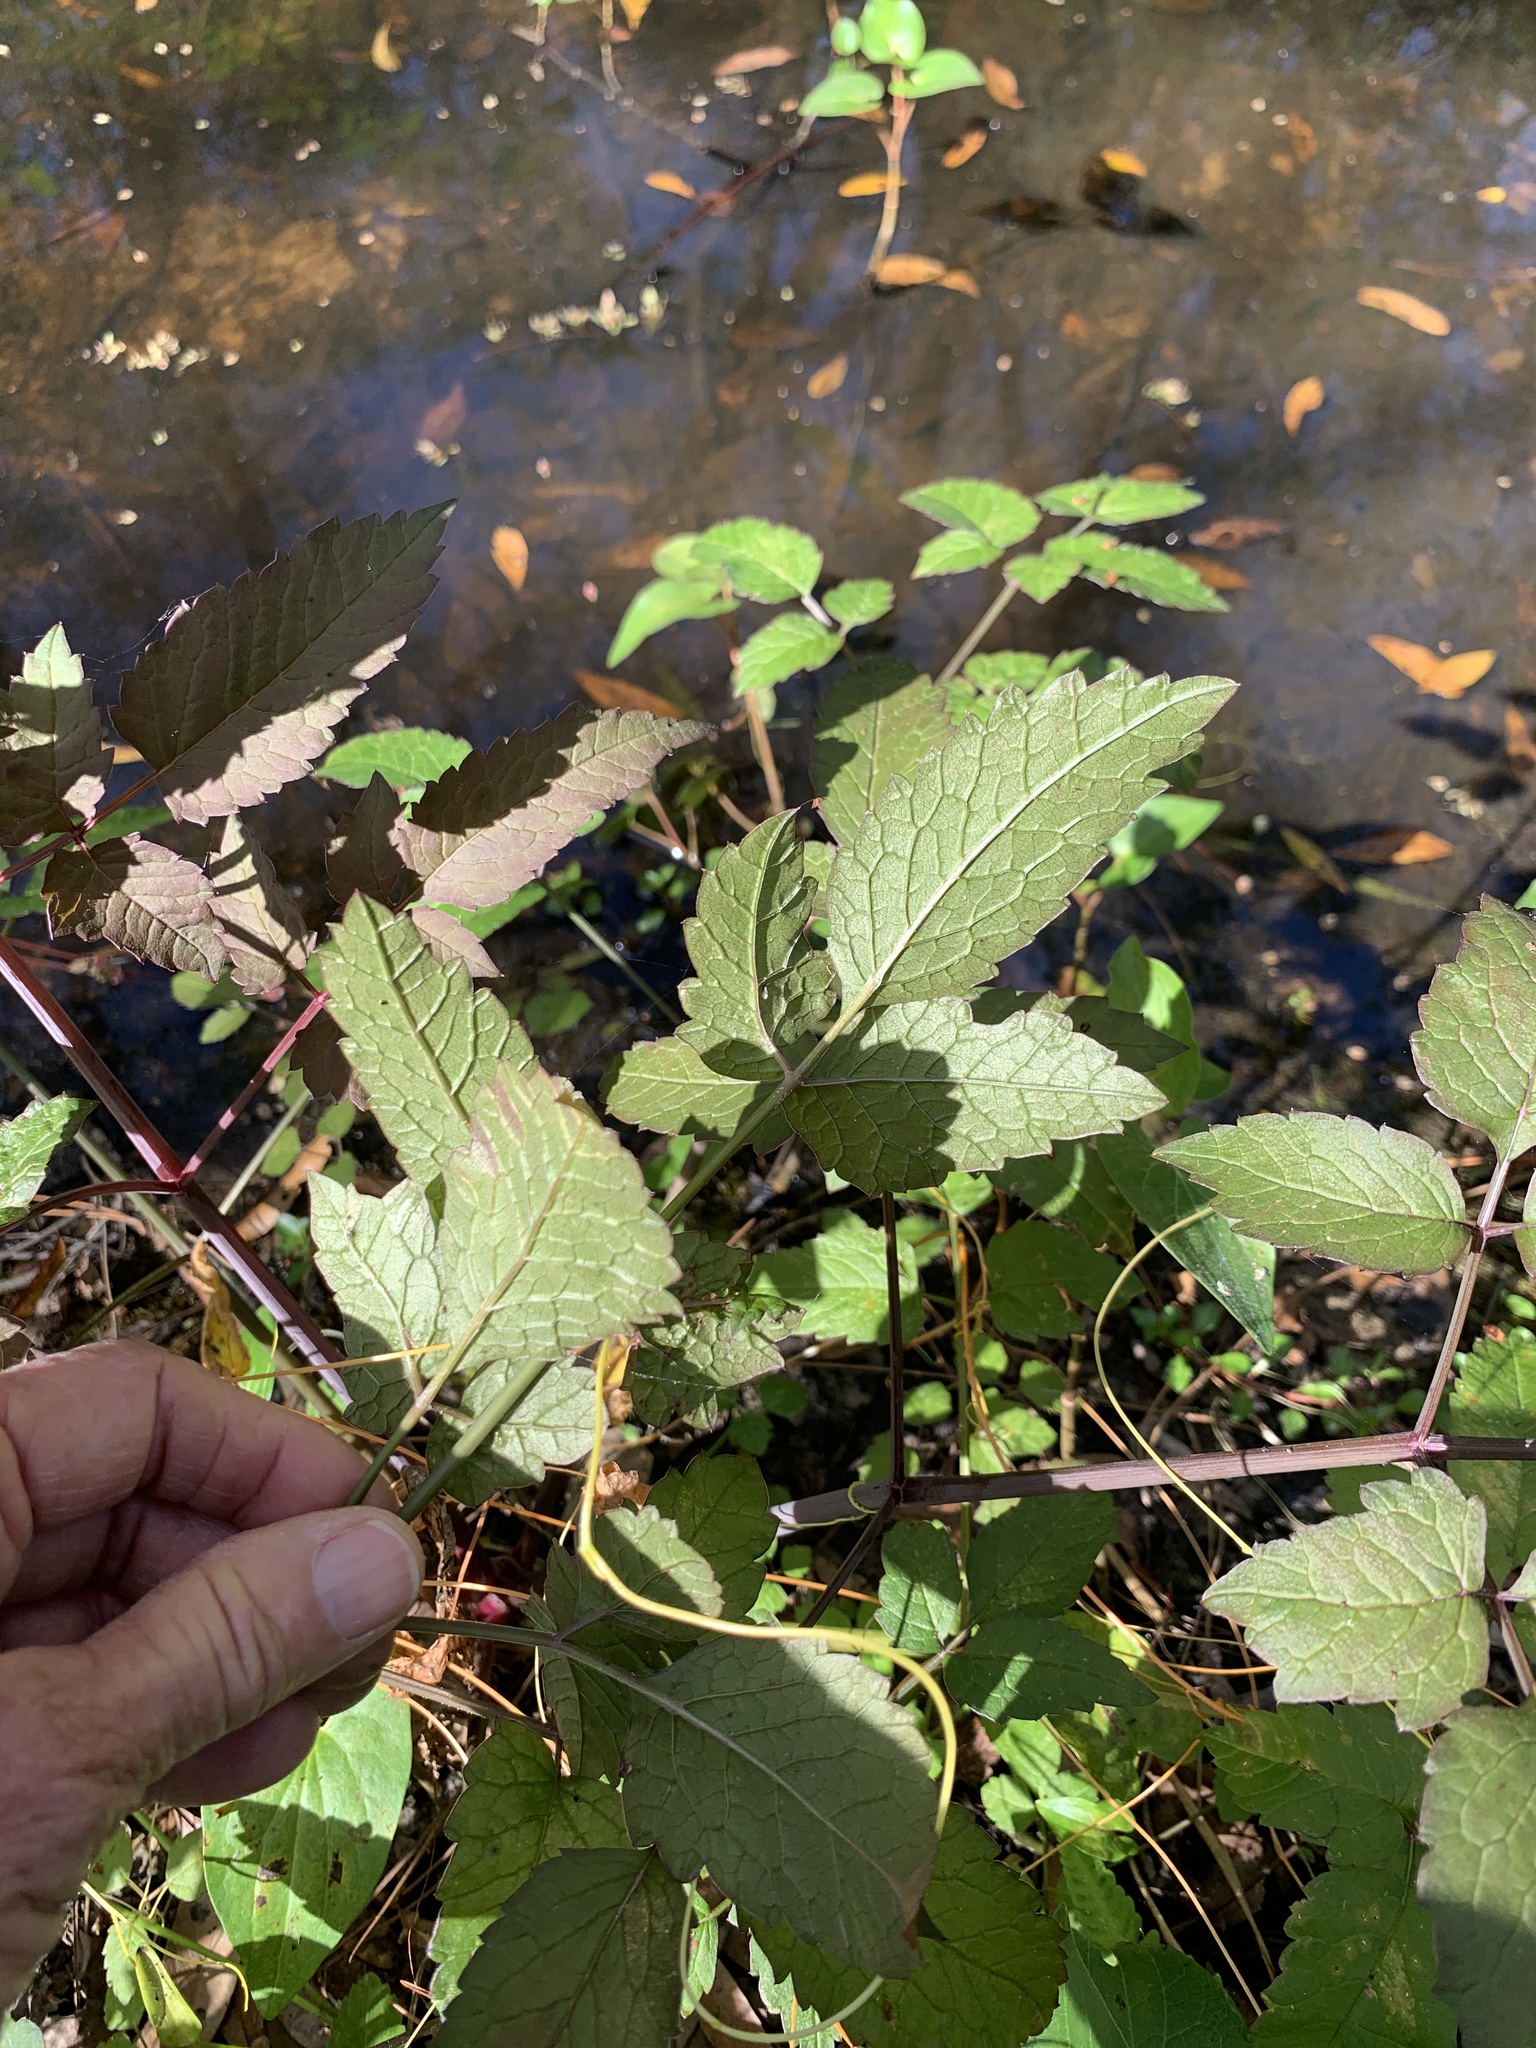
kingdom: Plantae
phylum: Tracheophyta
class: Magnoliopsida
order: Apiales
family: Apiaceae
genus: Cicuta
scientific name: Cicuta maculata
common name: Spotted cowbane
